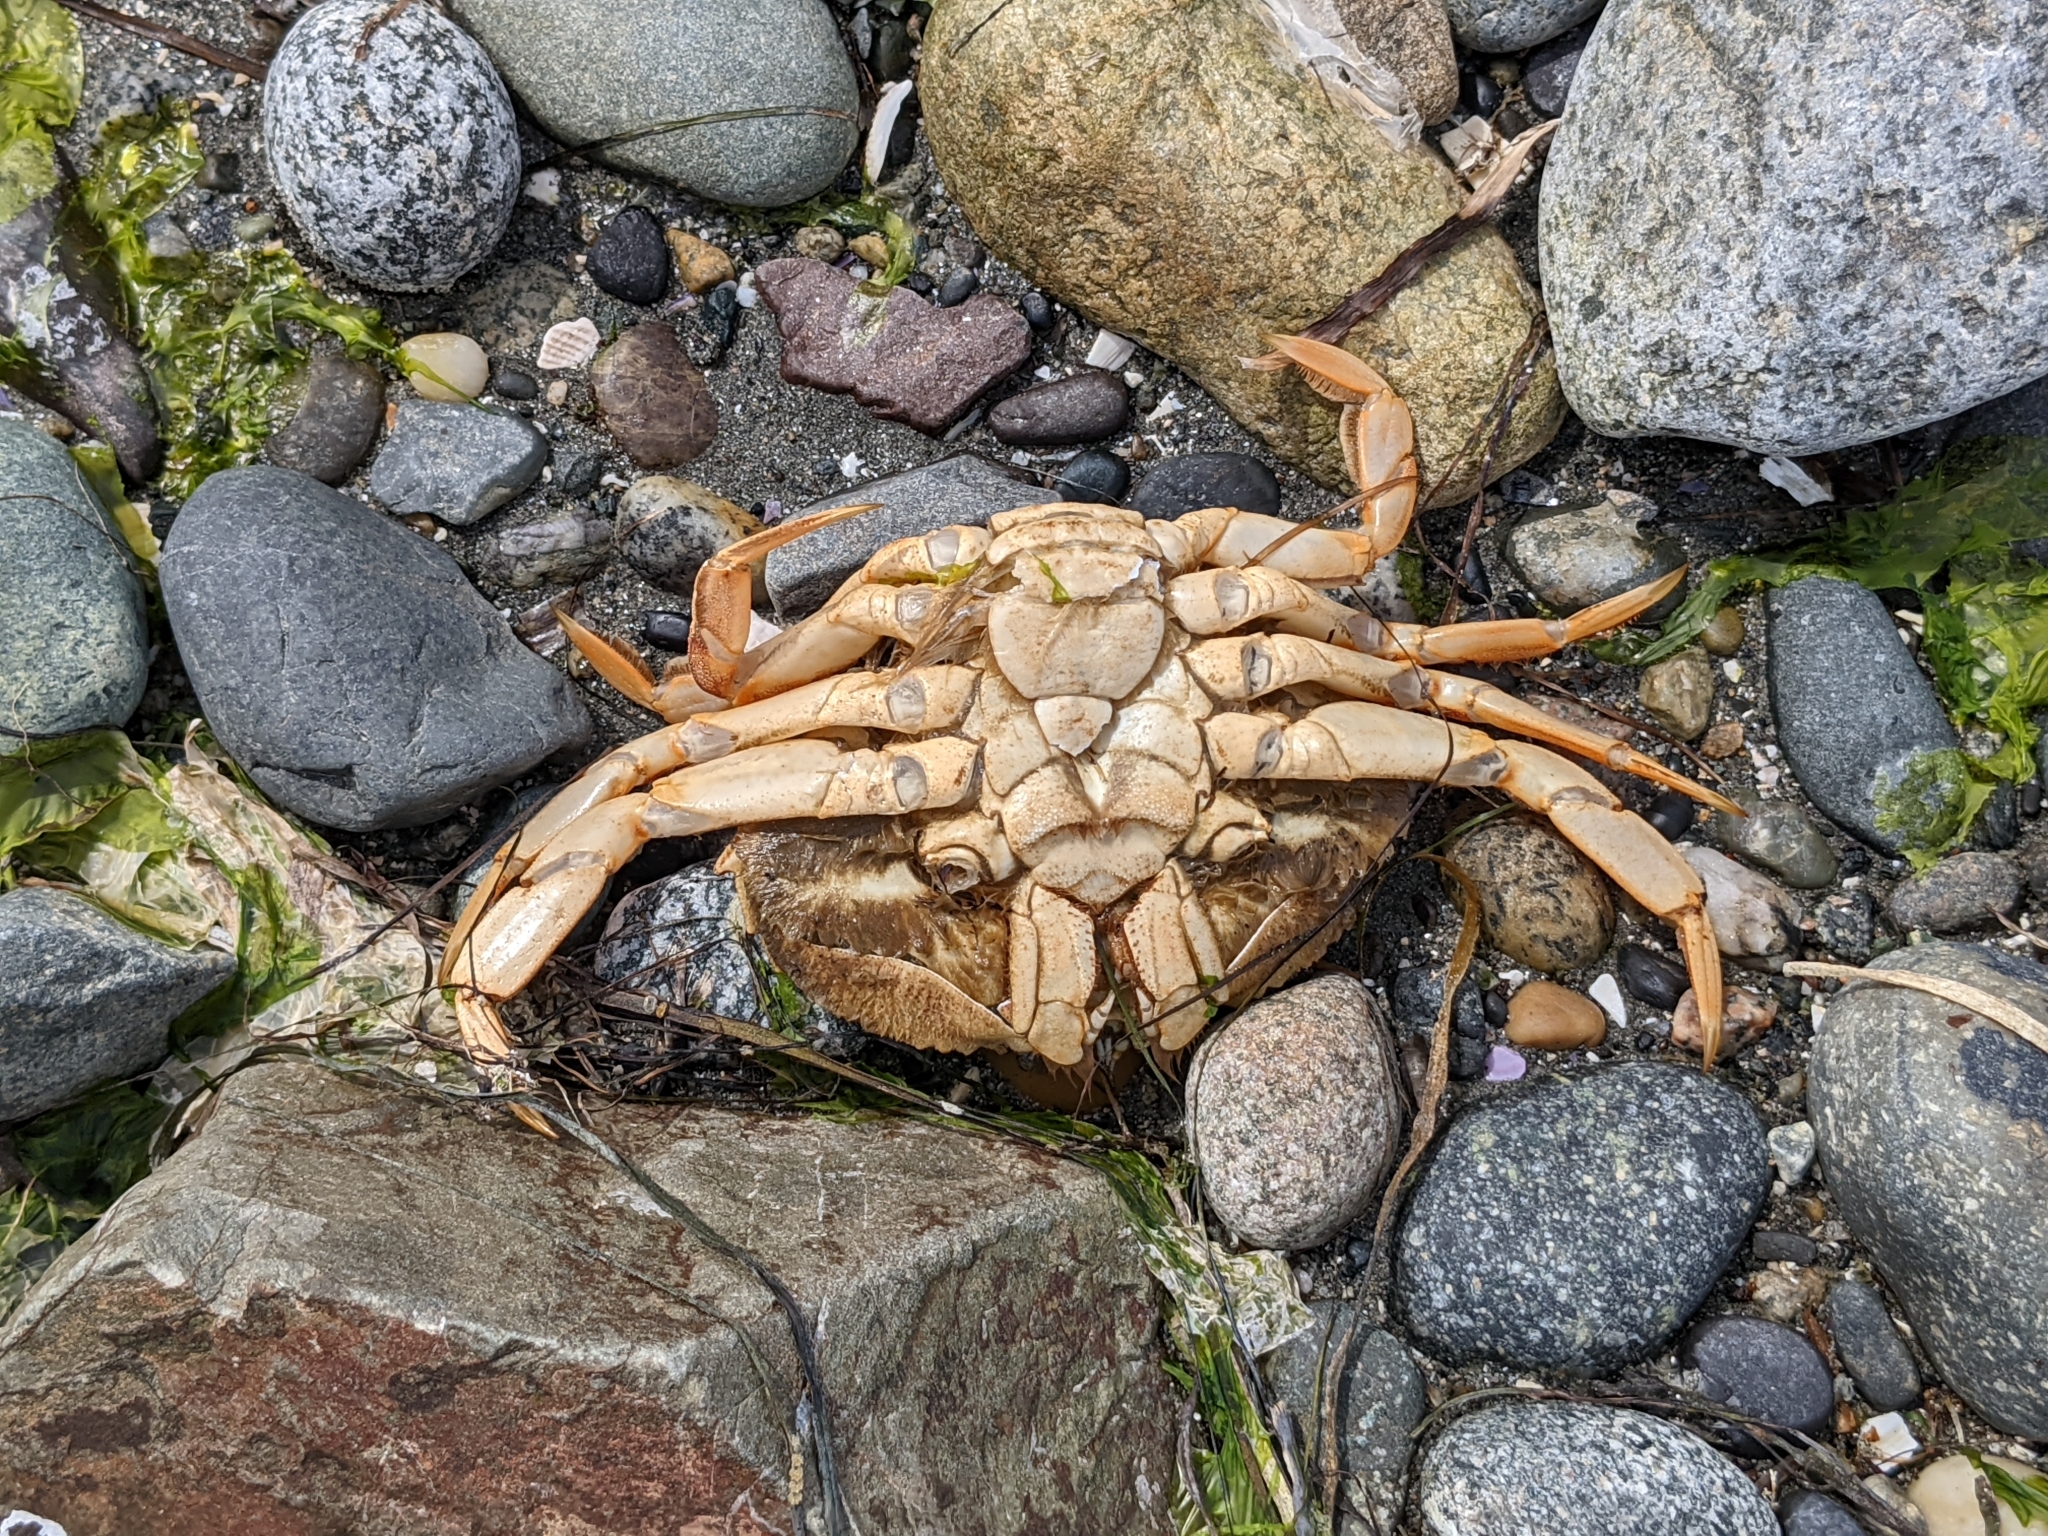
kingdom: Animalia
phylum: Arthropoda
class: Malacostraca
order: Decapoda
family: Cancridae
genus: Metacarcinus
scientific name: Metacarcinus magister
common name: Californian crab
